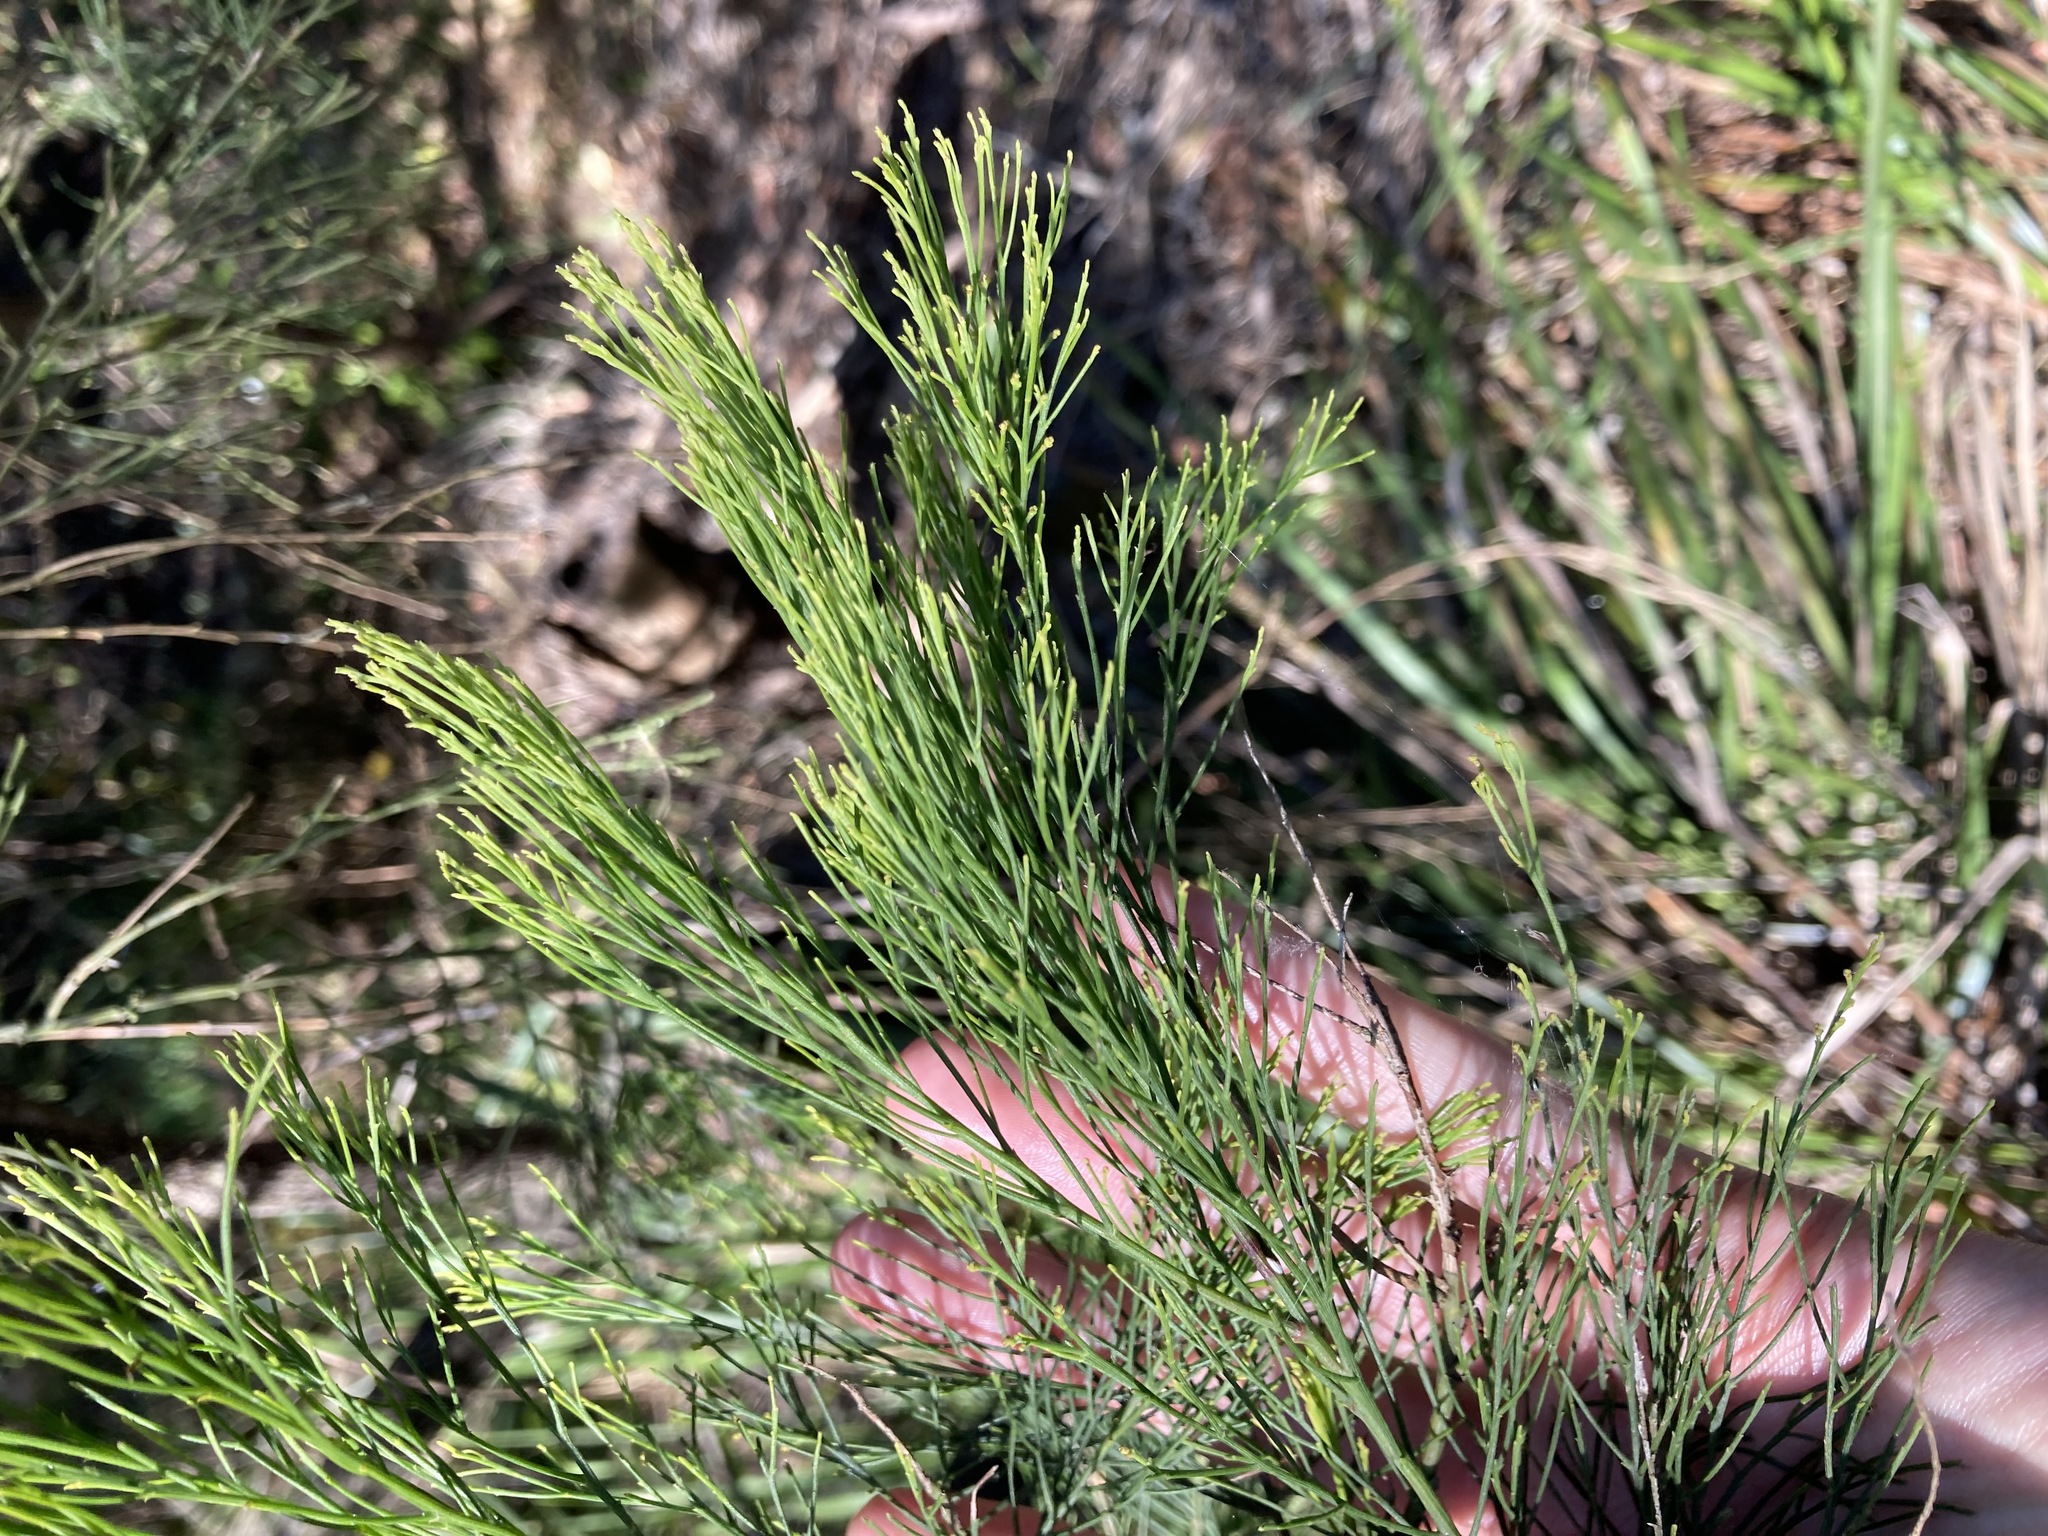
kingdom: Plantae
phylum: Tracheophyta
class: Magnoliopsida
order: Santalales
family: Santalaceae
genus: Exocarpos
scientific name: Exocarpos cupressiformis
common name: Cherry ballart
